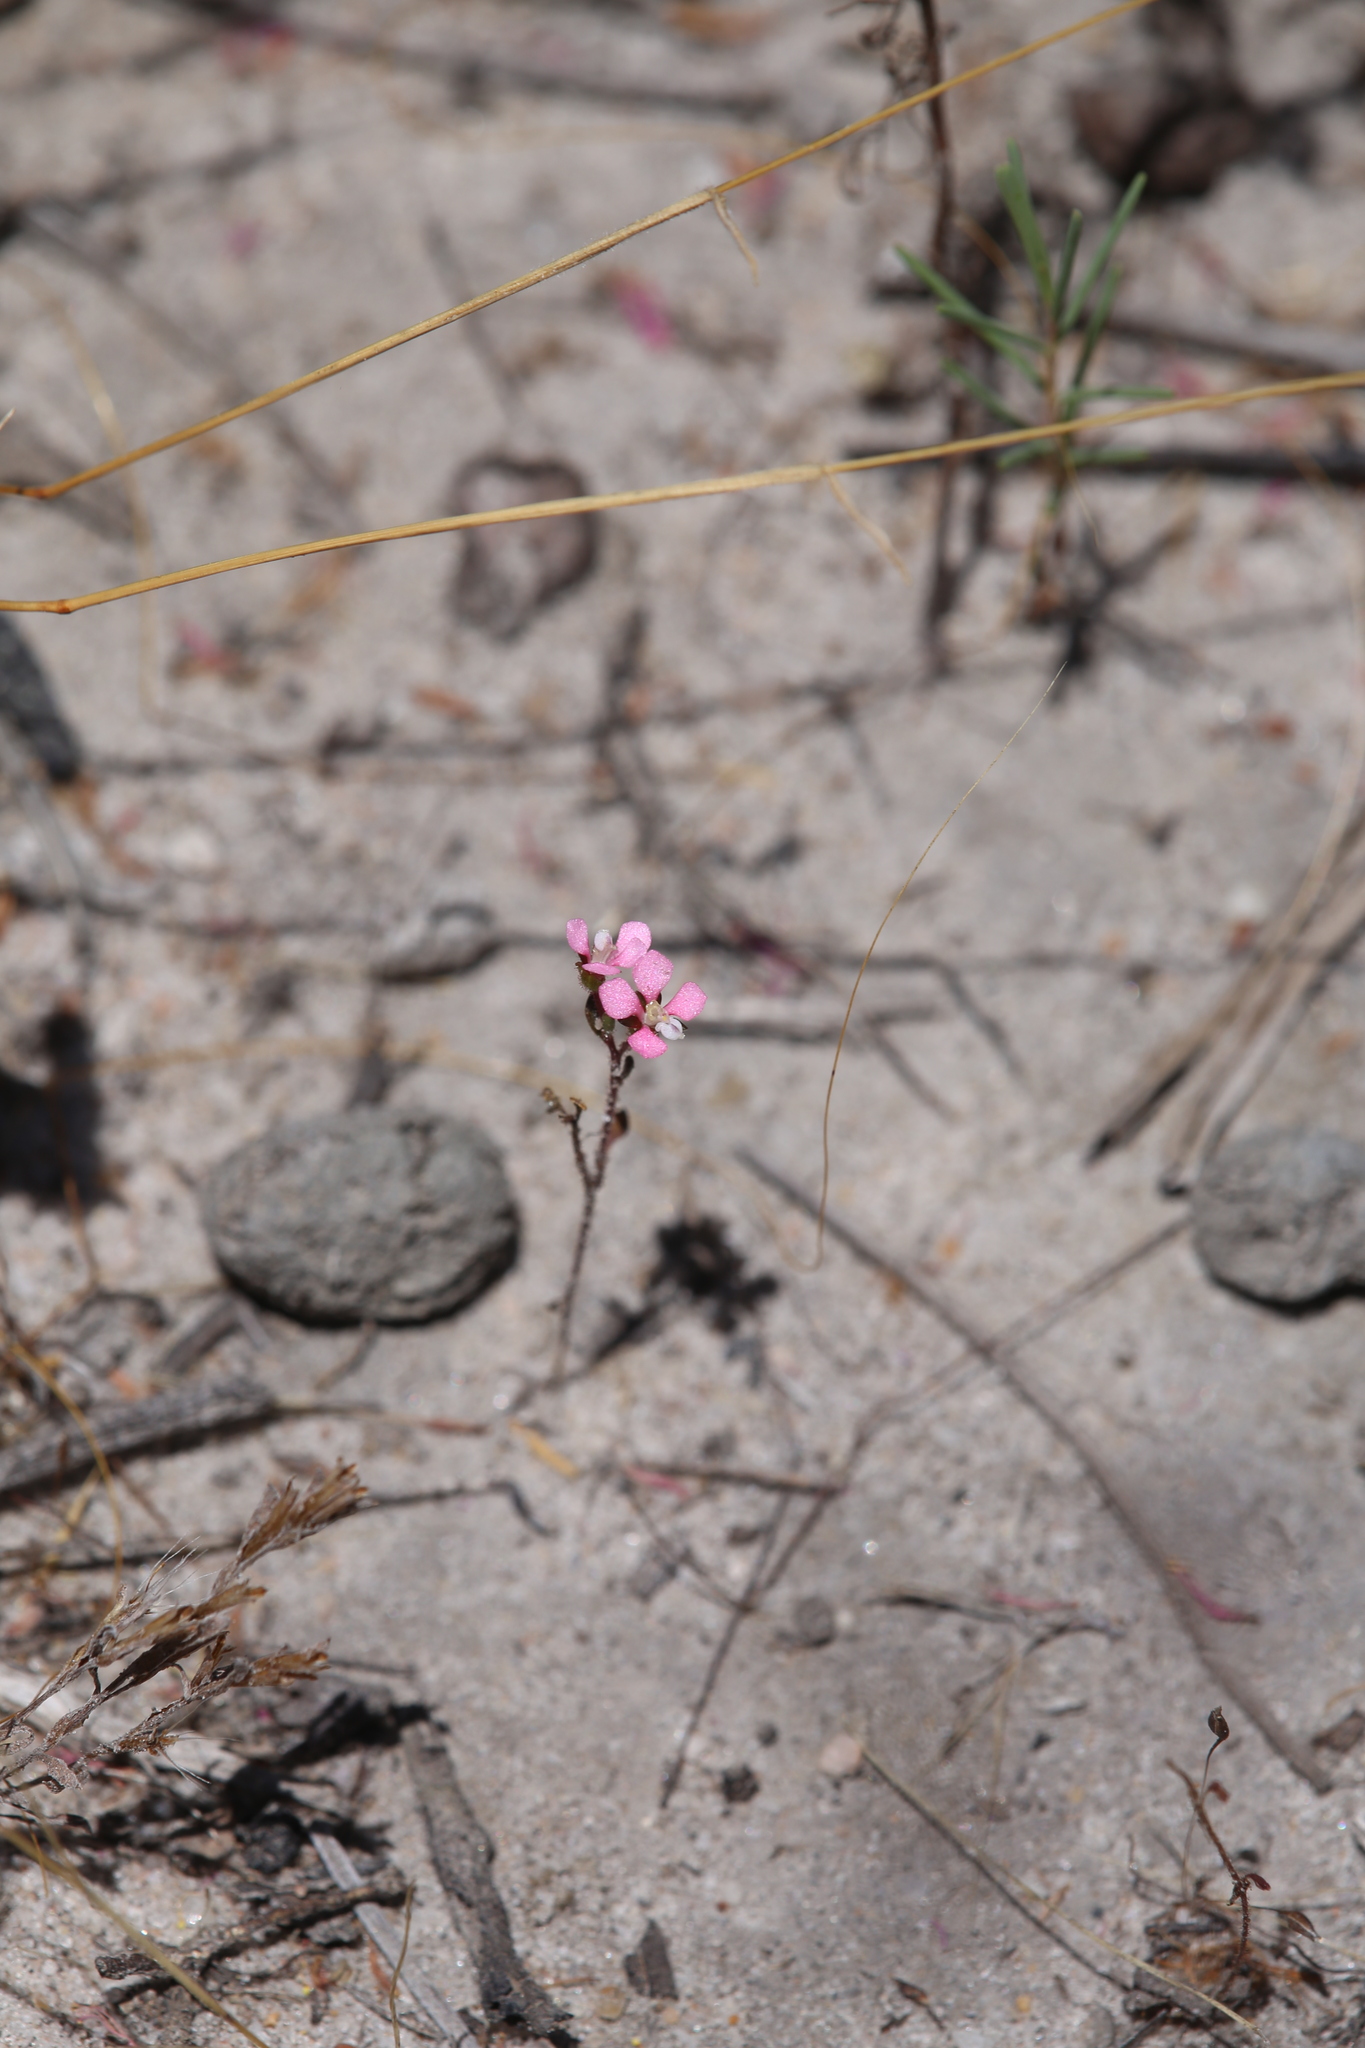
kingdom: Plantae
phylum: Tracheophyta
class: Magnoliopsida
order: Asterales
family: Stylidiaceae
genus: Levenhookia
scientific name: Levenhookia stipitata
